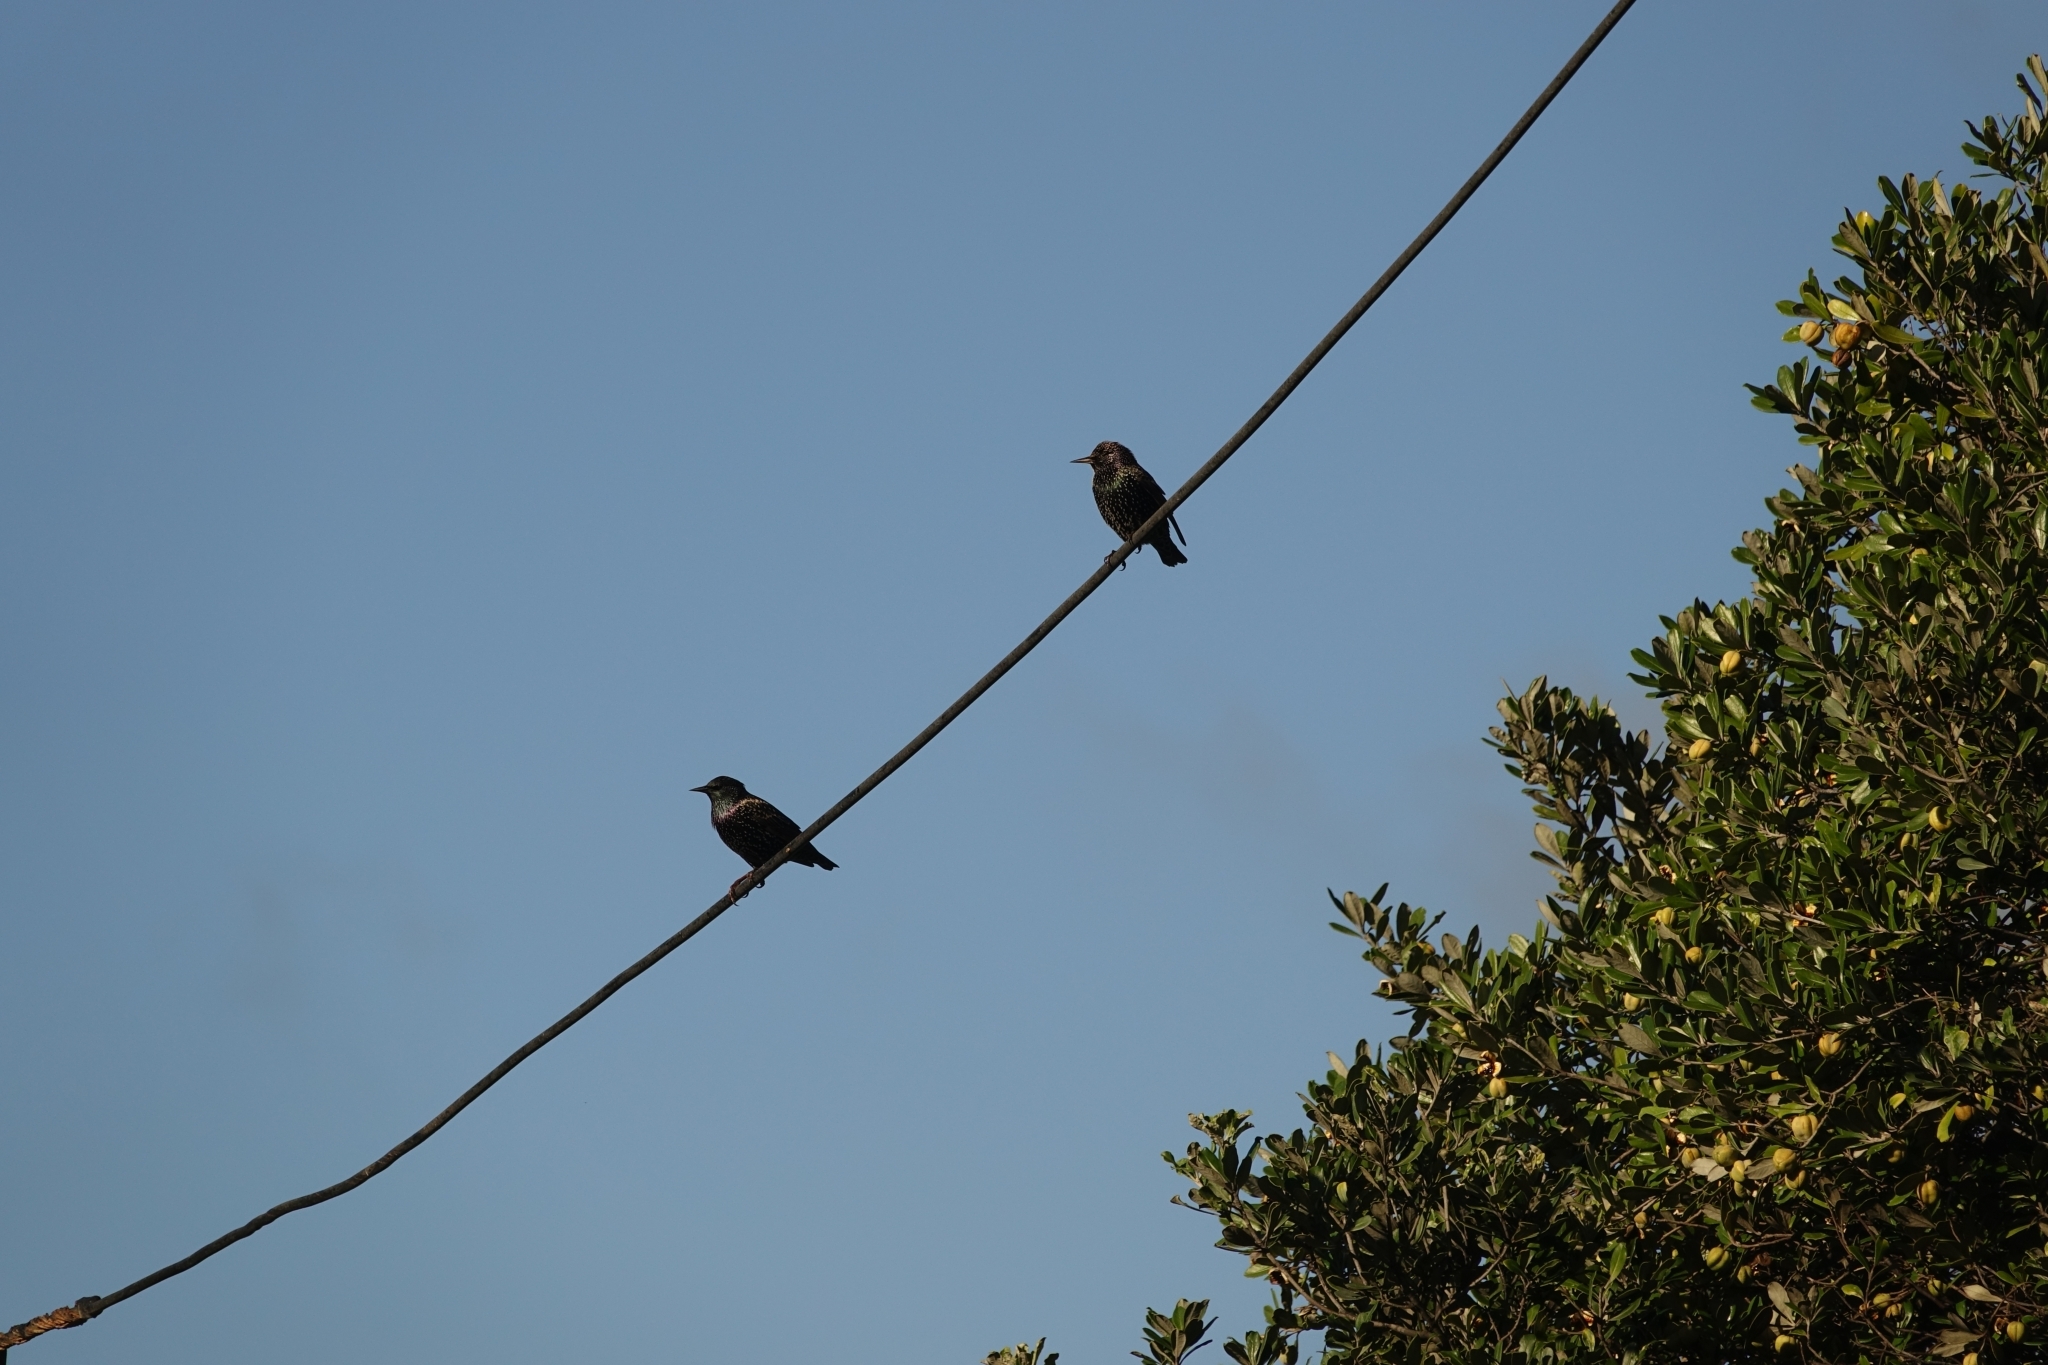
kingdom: Animalia
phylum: Chordata
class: Aves
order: Passeriformes
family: Sturnidae
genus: Sturnus
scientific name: Sturnus vulgaris
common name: Common starling
